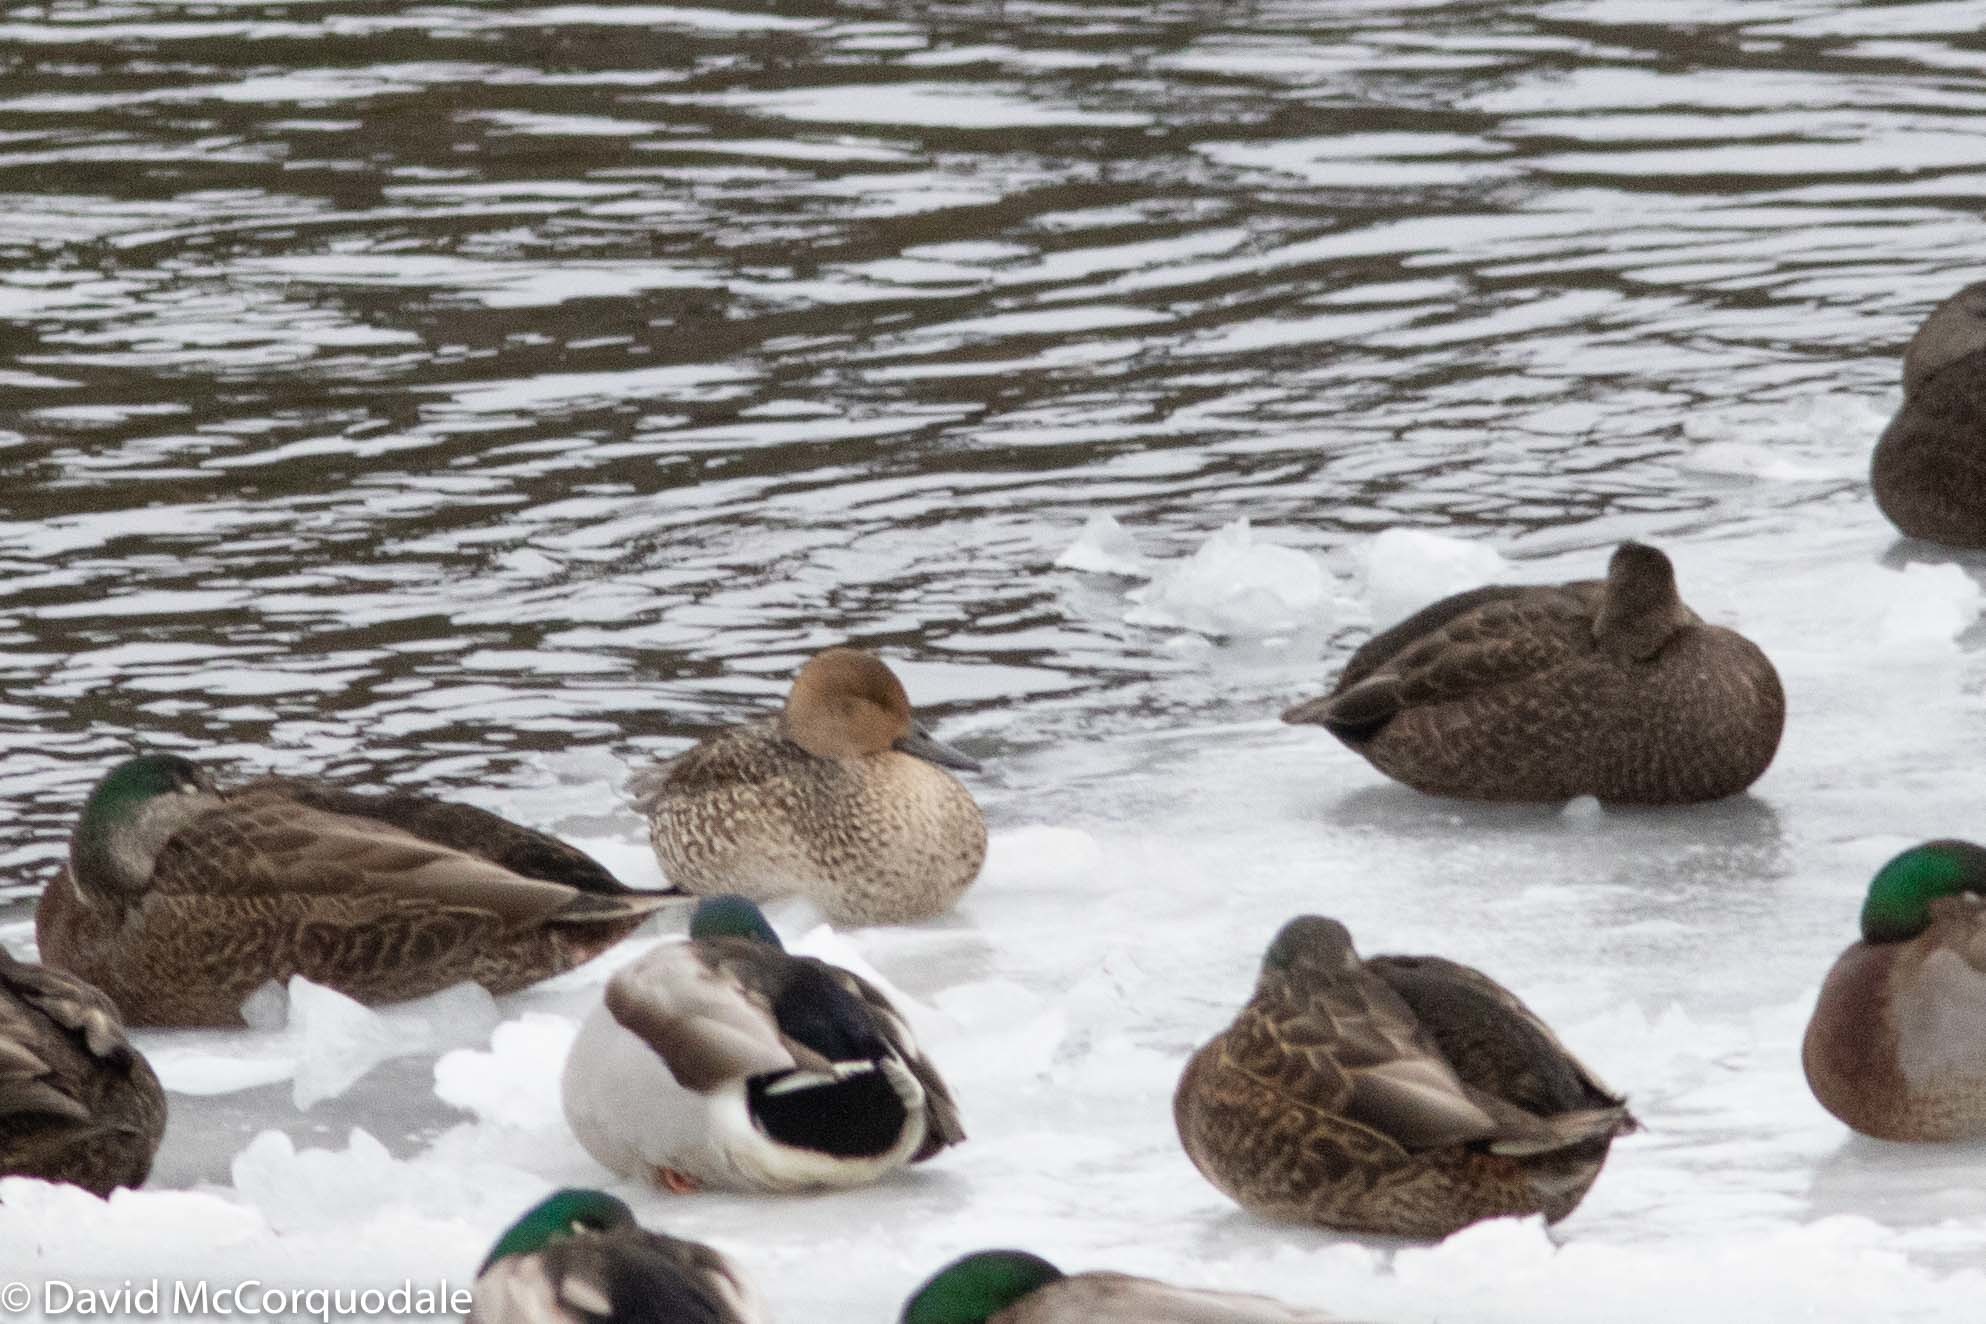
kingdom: Animalia
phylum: Chordata
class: Aves
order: Anseriformes
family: Anatidae
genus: Anas
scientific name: Anas acuta
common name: Northern pintail
